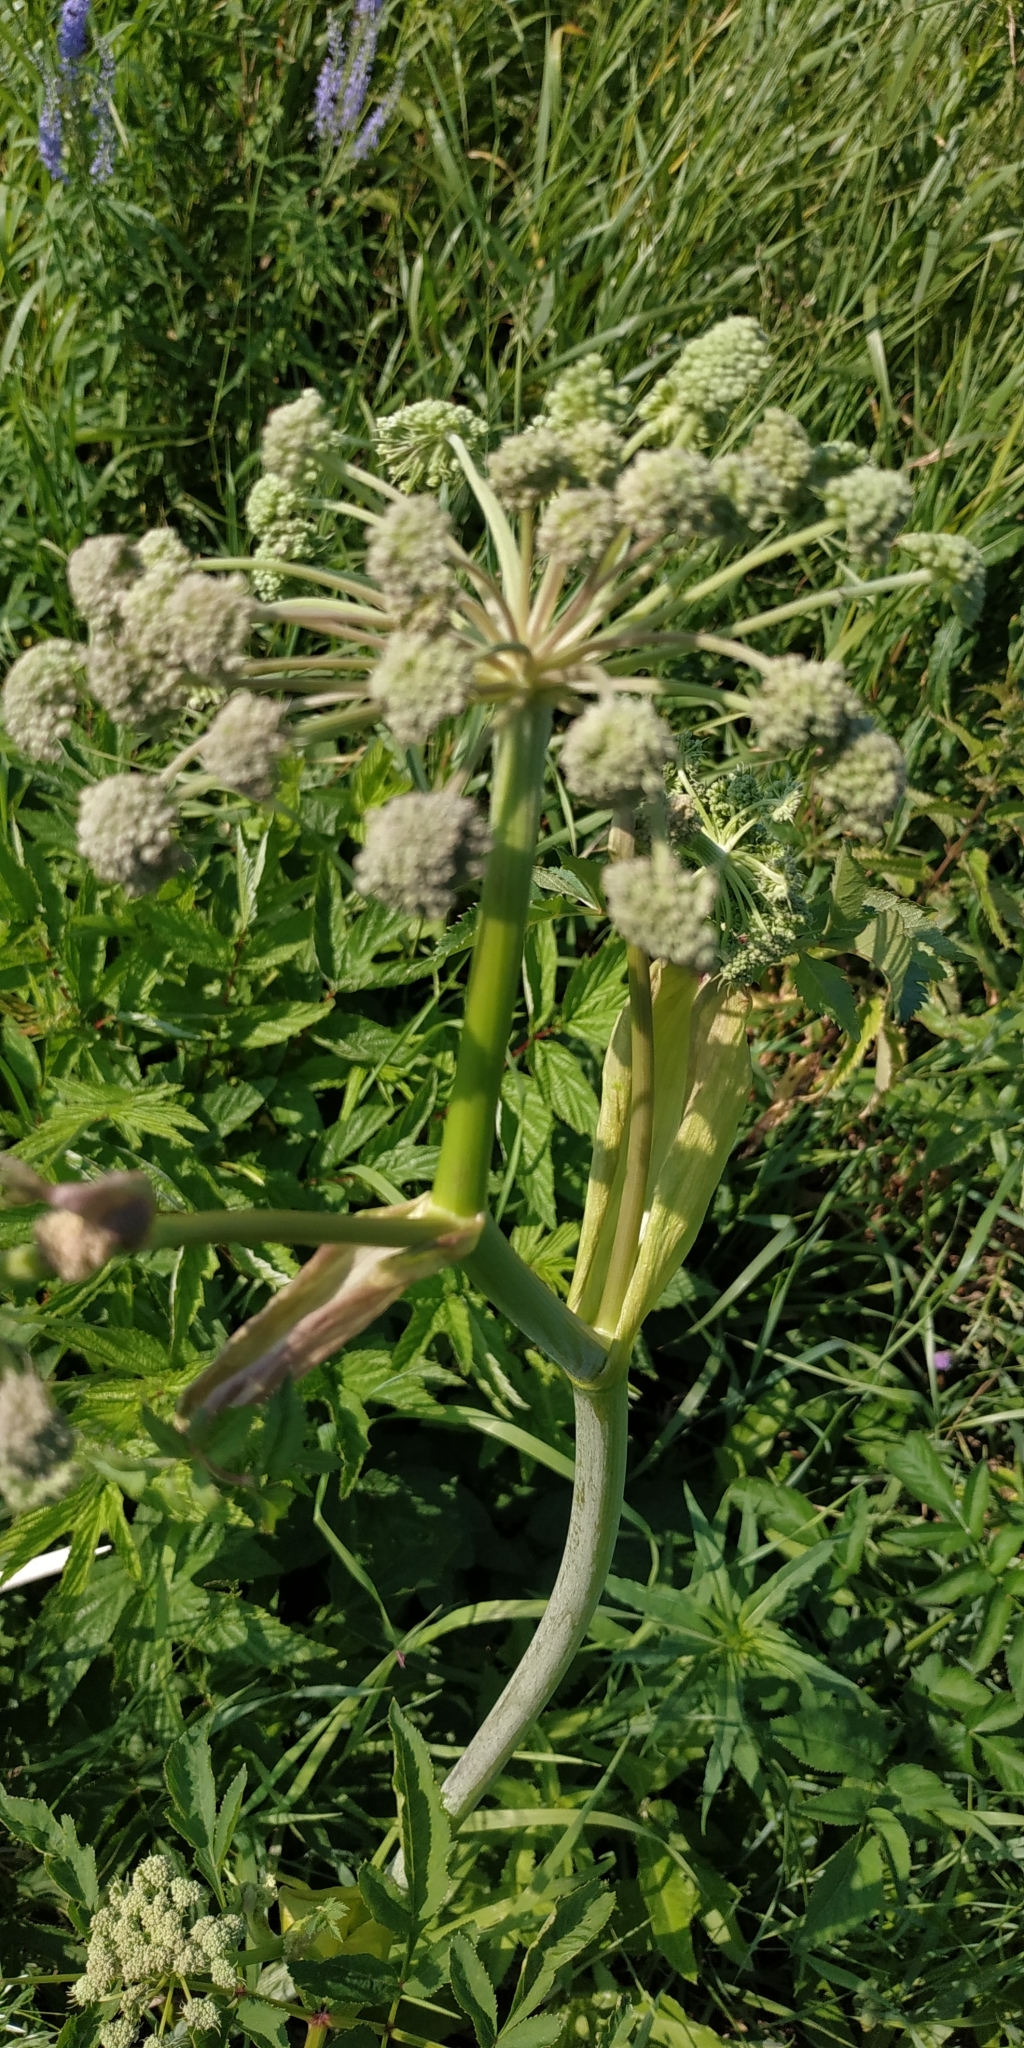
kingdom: Plantae
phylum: Tracheophyta
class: Magnoliopsida
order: Apiales
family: Apiaceae
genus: Angelica
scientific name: Angelica sylvestris
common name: Wild angelica
